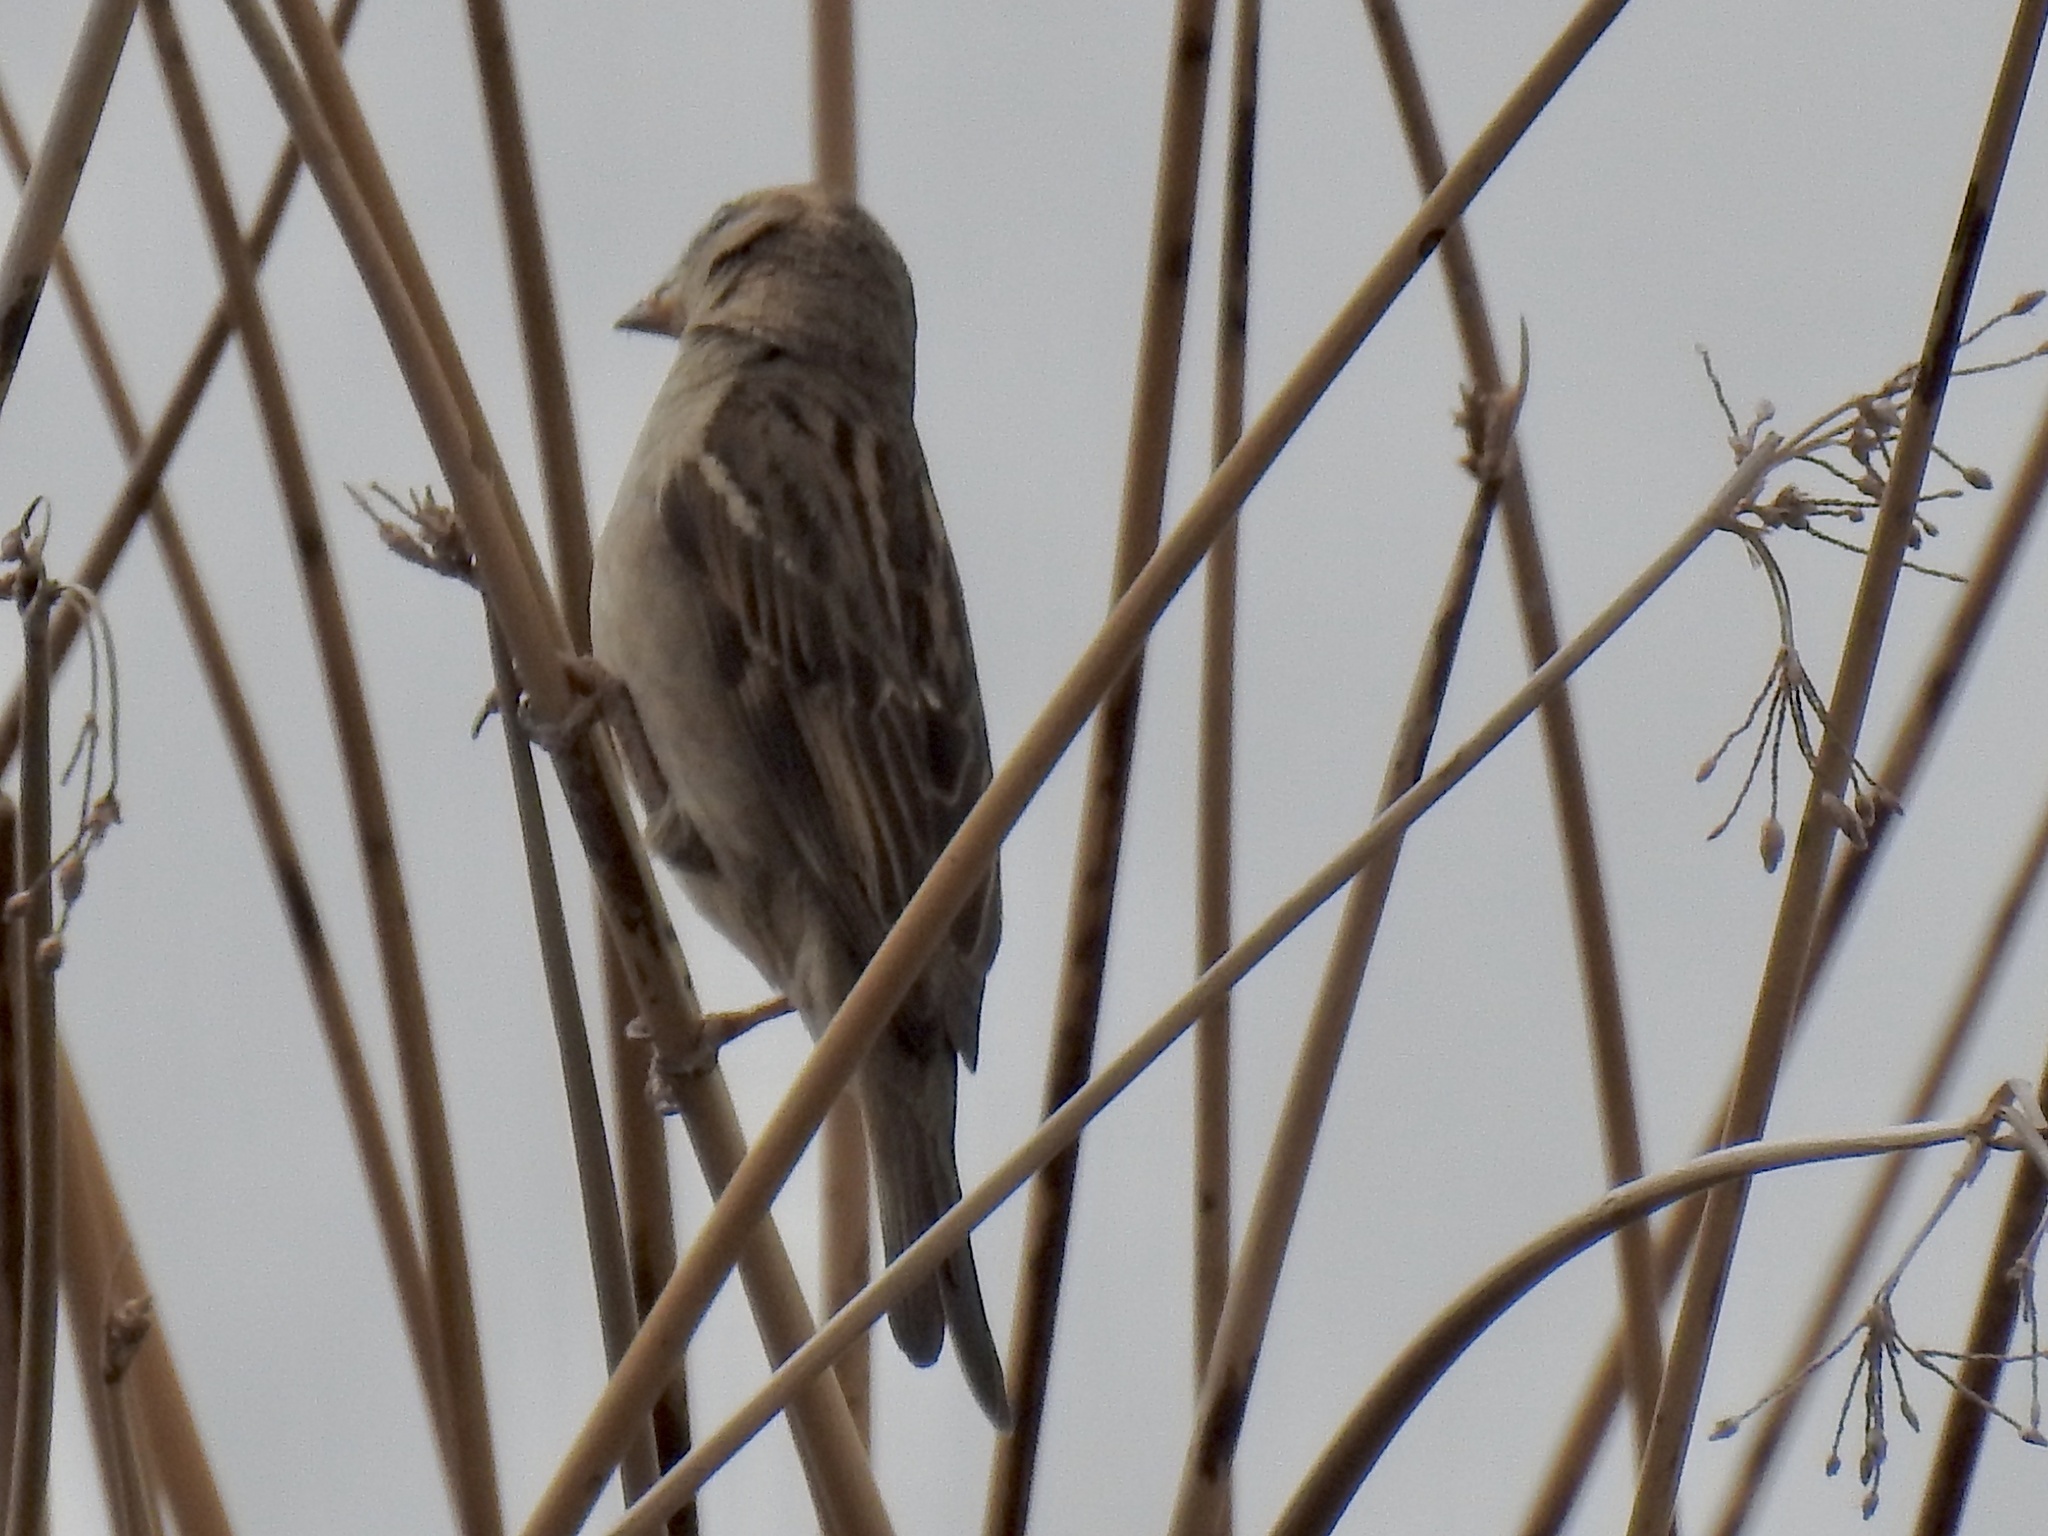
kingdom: Animalia
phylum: Chordata
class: Aves
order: Passeriformes
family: Passeridae
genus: Passer
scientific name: Passer domesticus
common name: House sparrow
